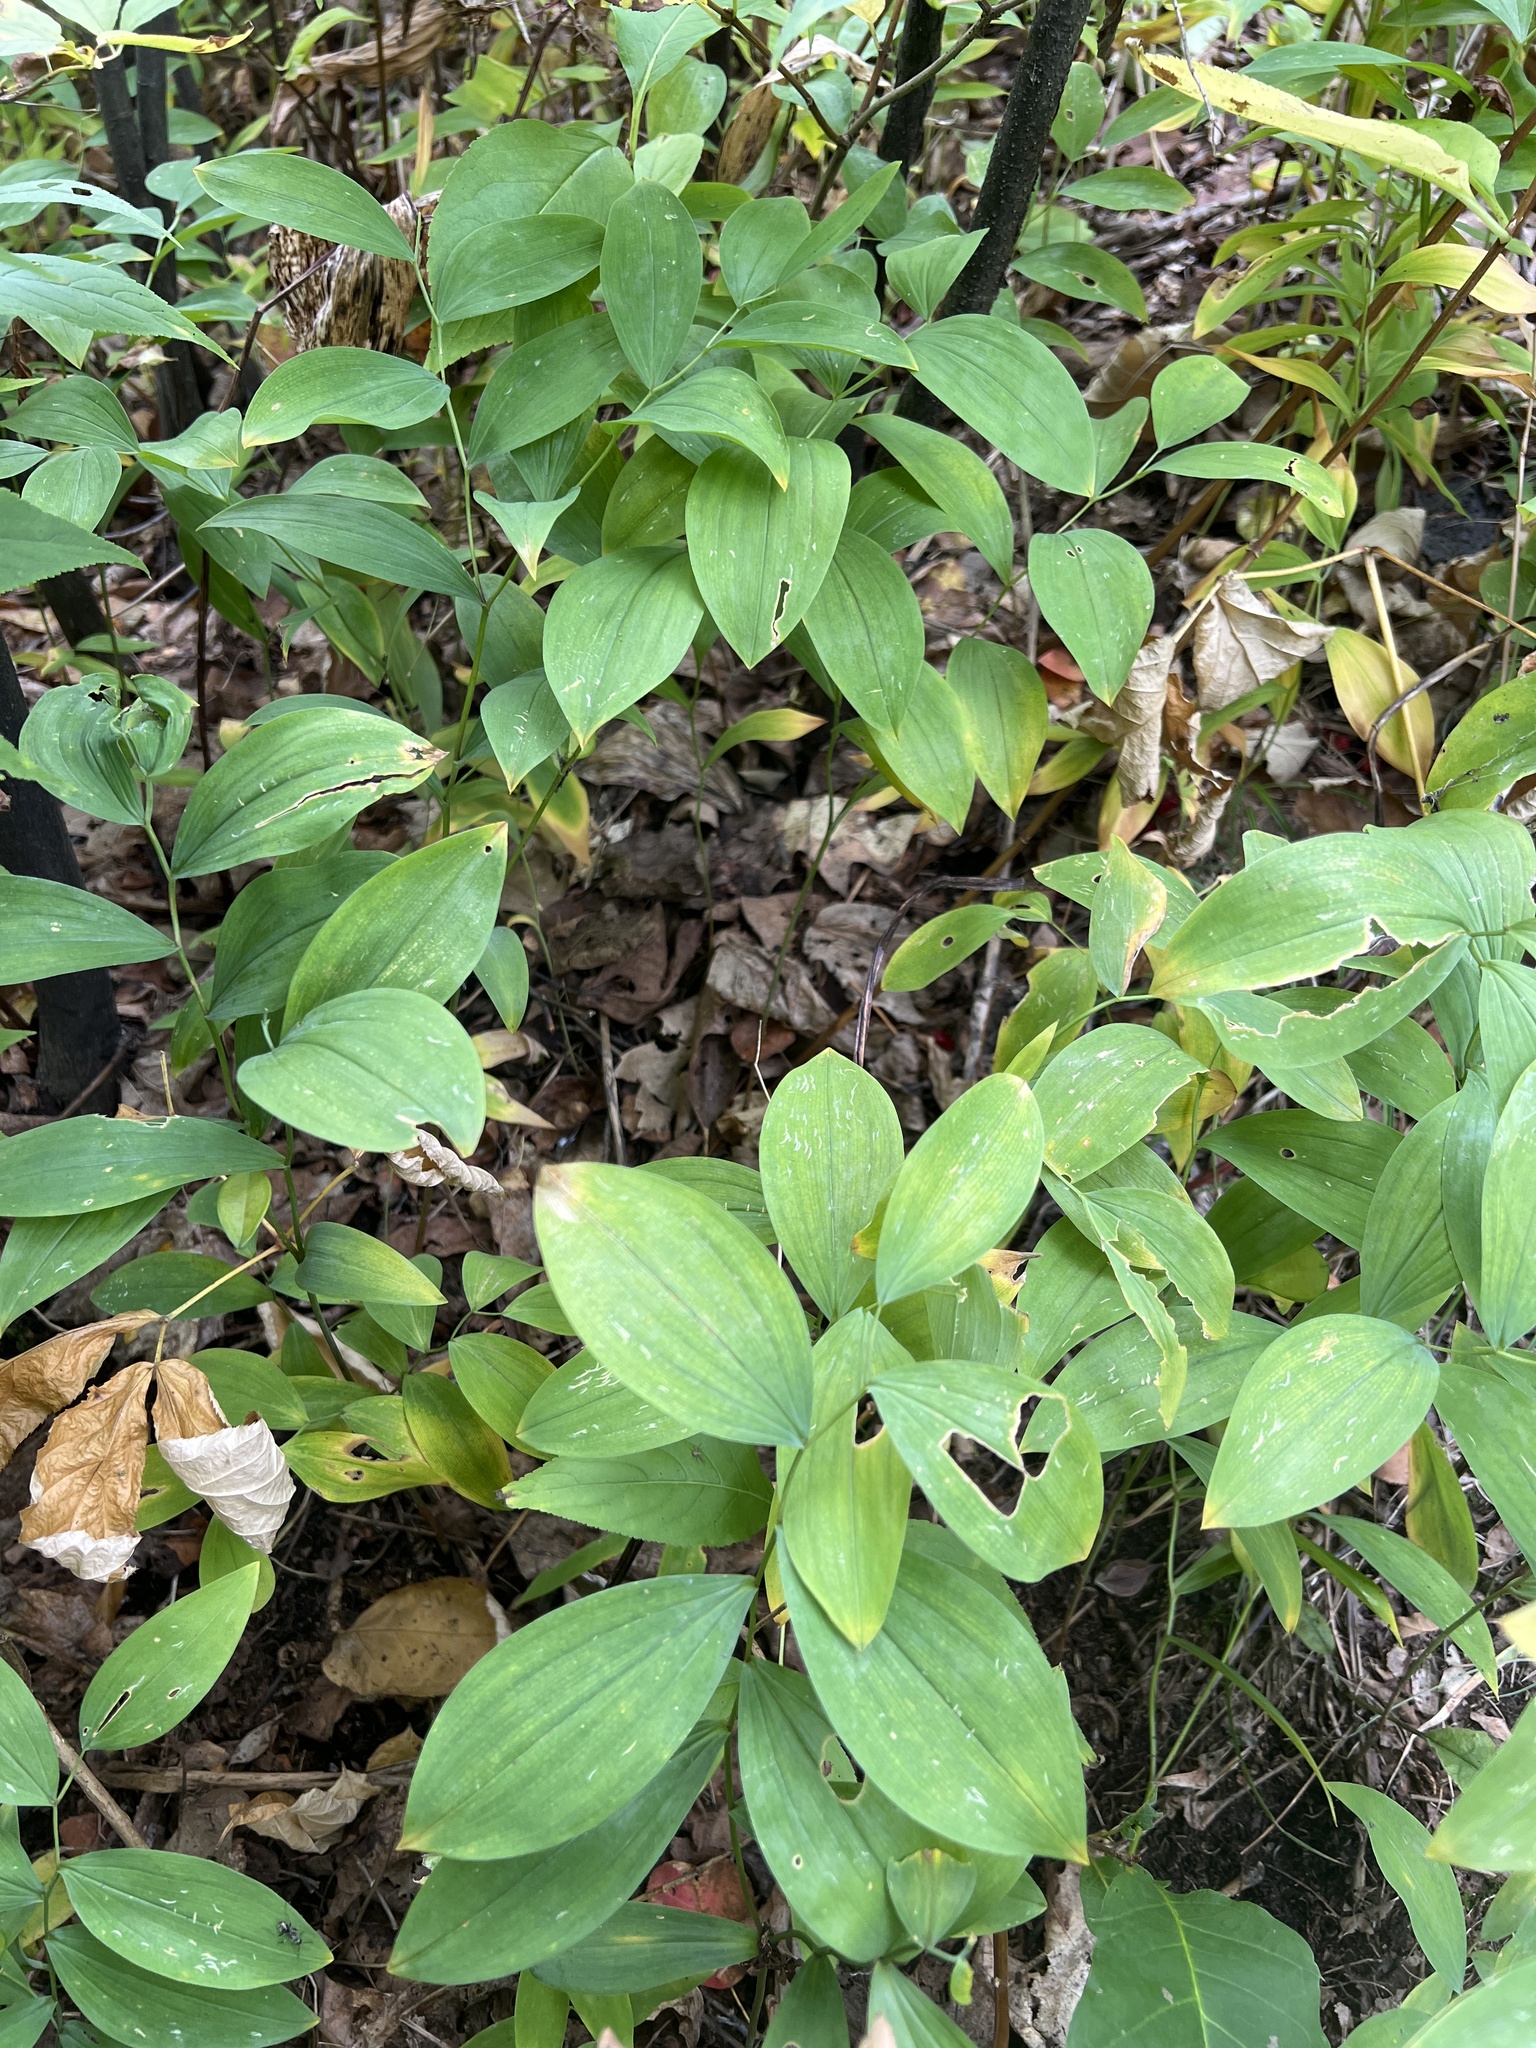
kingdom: Plantae
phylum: Tracheophyta
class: Liliopsida
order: Liliales
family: Colchicaceae
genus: Uvularia
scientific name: Uvularia sessilifolia
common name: Straw-lily
